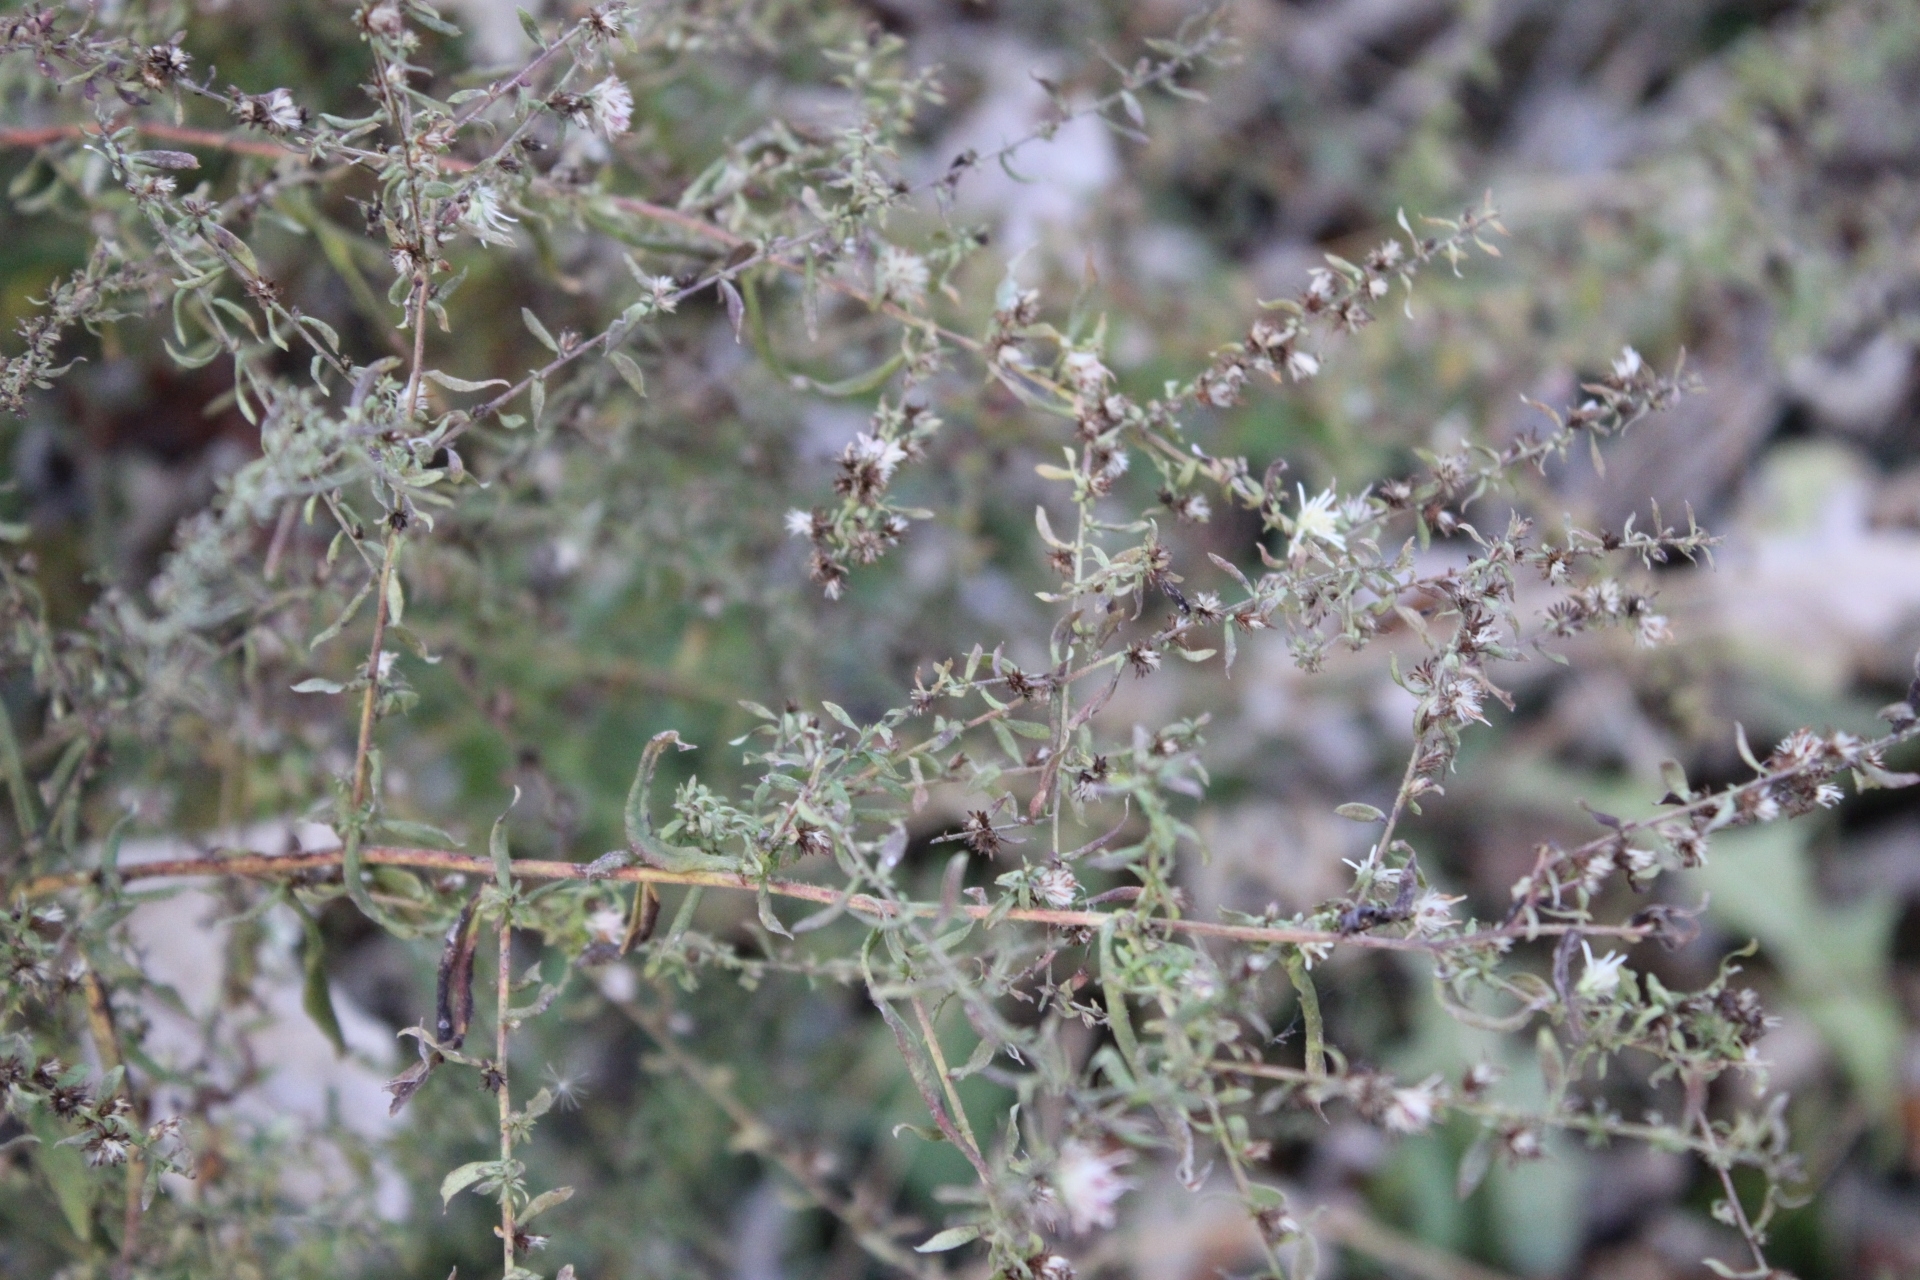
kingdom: Plantae
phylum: Tracheophyta
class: Magnoliopsida
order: Asterales
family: Asteraceae
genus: Symphyotrichum
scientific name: Symphyotrichum lateriflorum
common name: Calico aster
